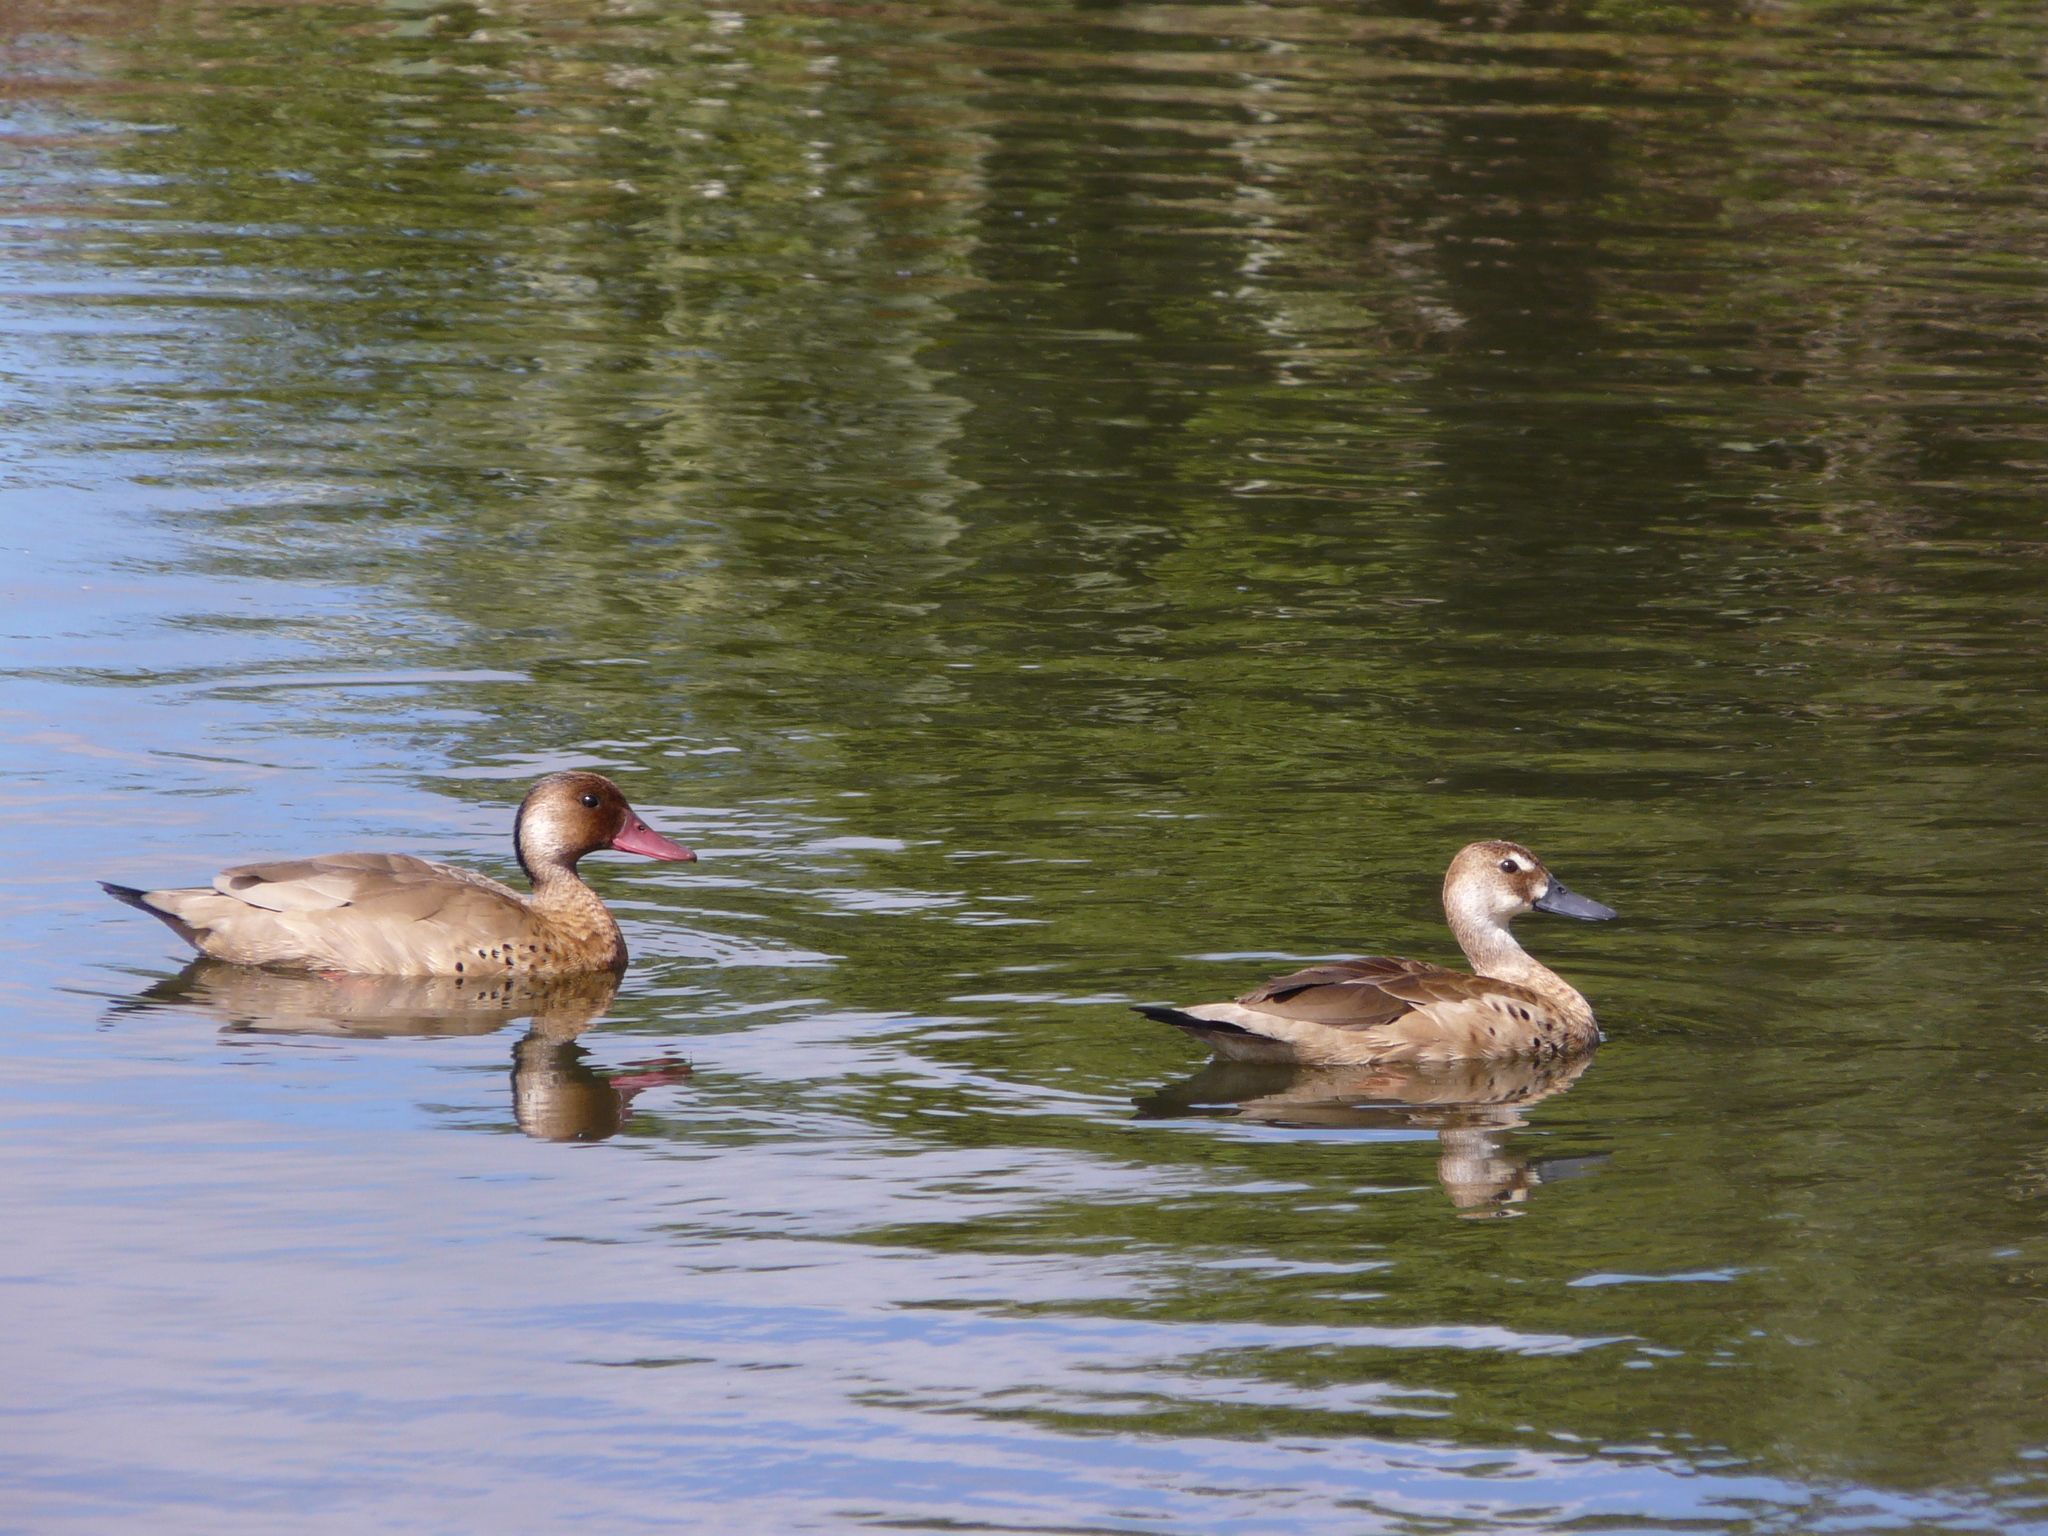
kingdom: Animalia
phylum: Chordata
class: Aves
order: Anseriformes
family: Anatidae
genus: Amazonetta
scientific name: Amazonetta brasiliensis
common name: Brazilian teal
